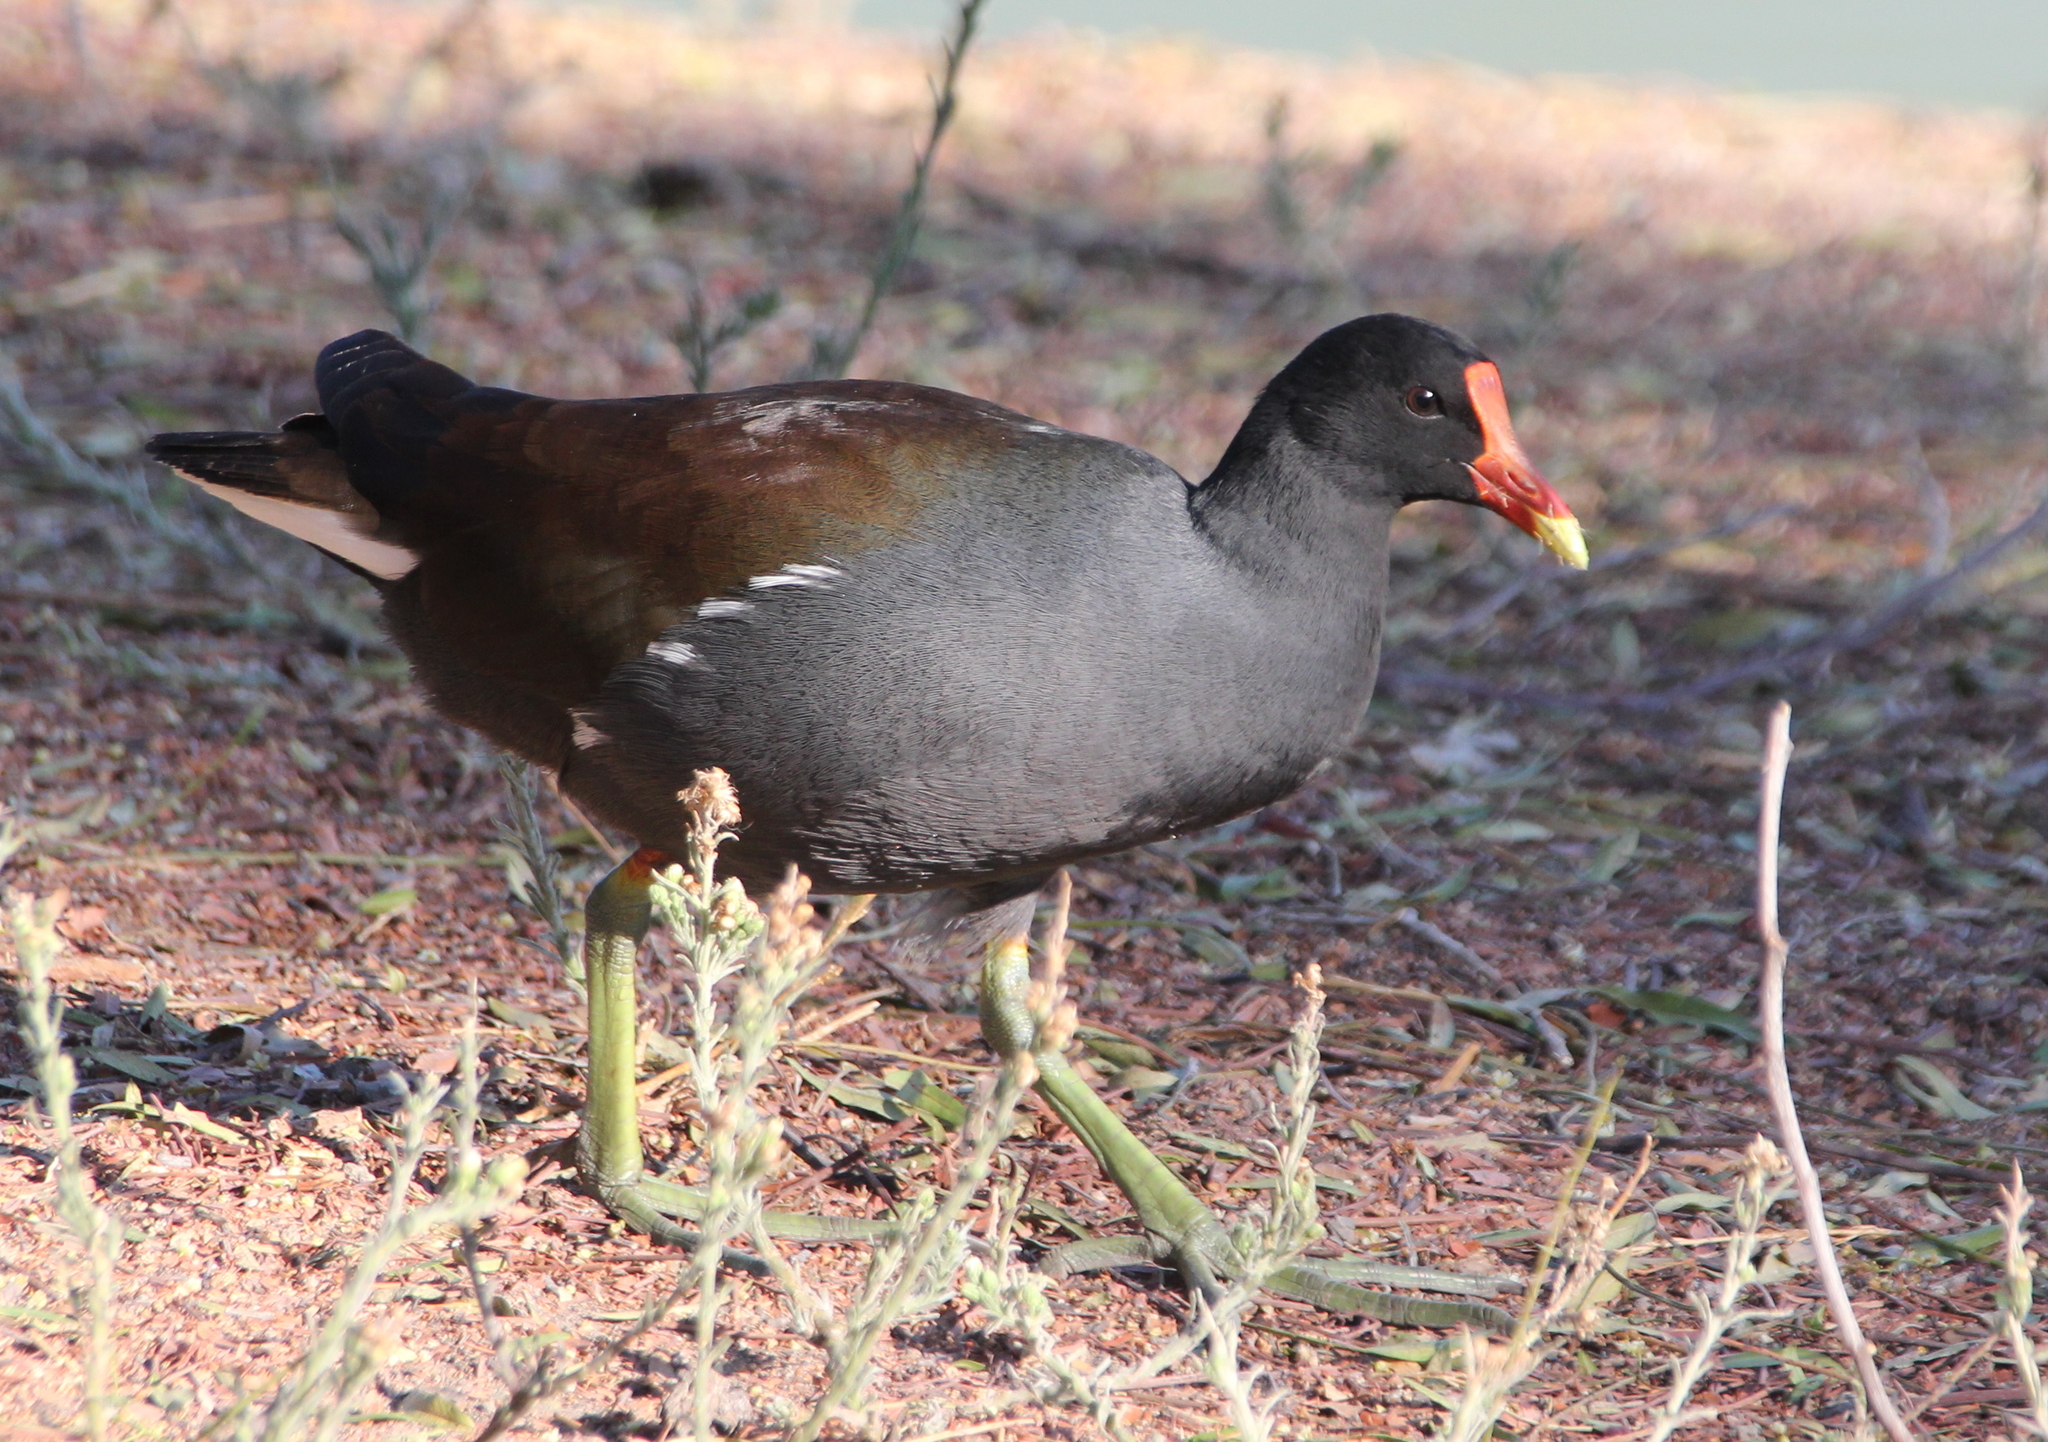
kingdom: Animalia
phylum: Chordata
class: Aves
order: Gruiformes
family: Rallidae
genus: Gallinula
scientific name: Gallinula chloropus
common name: Common moorhen
